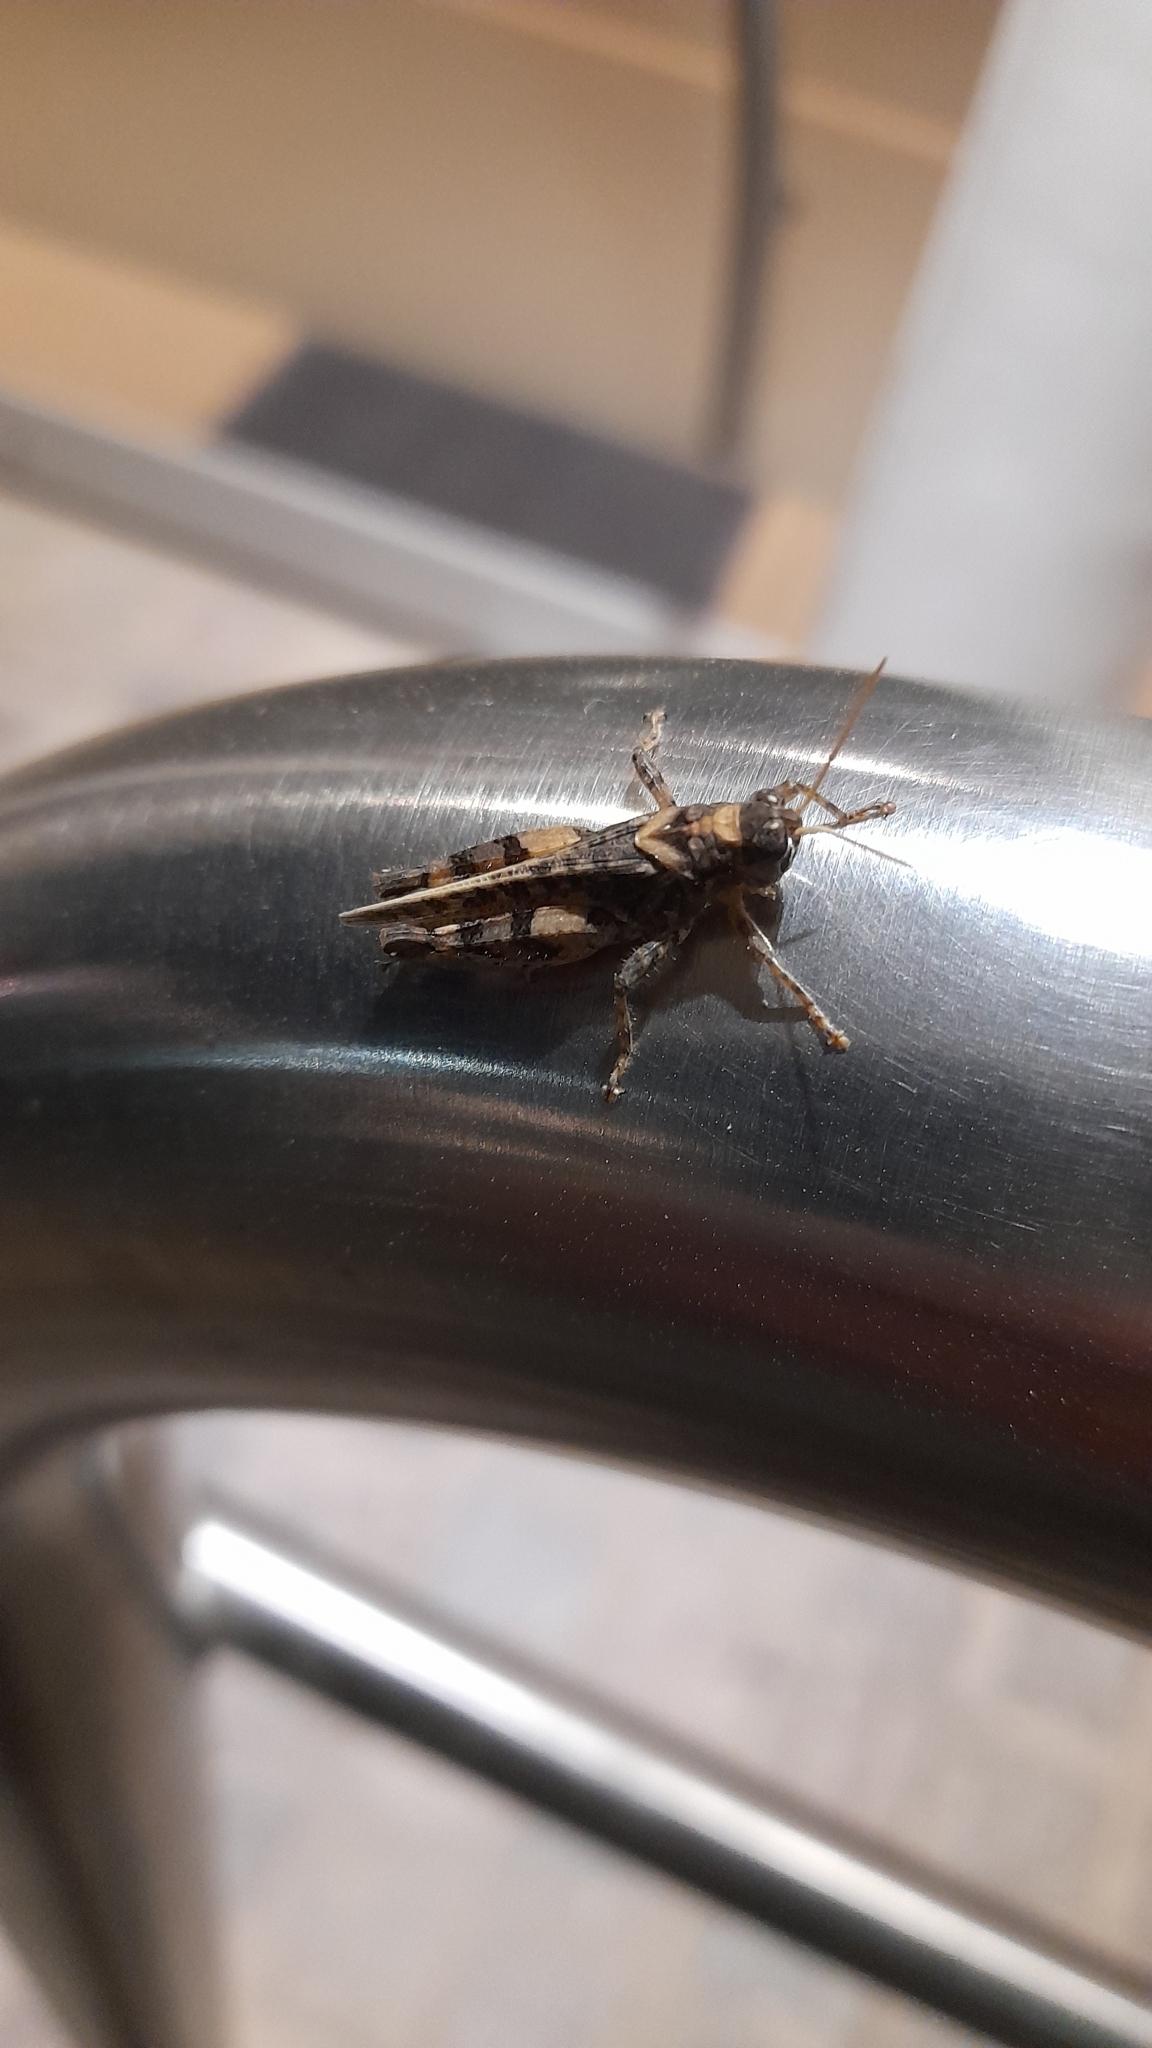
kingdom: Animalia
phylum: Arthropoda
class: Insecta
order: Orthoptera
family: Acrididae
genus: Dichroplus
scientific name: Dichroplus conspersus
